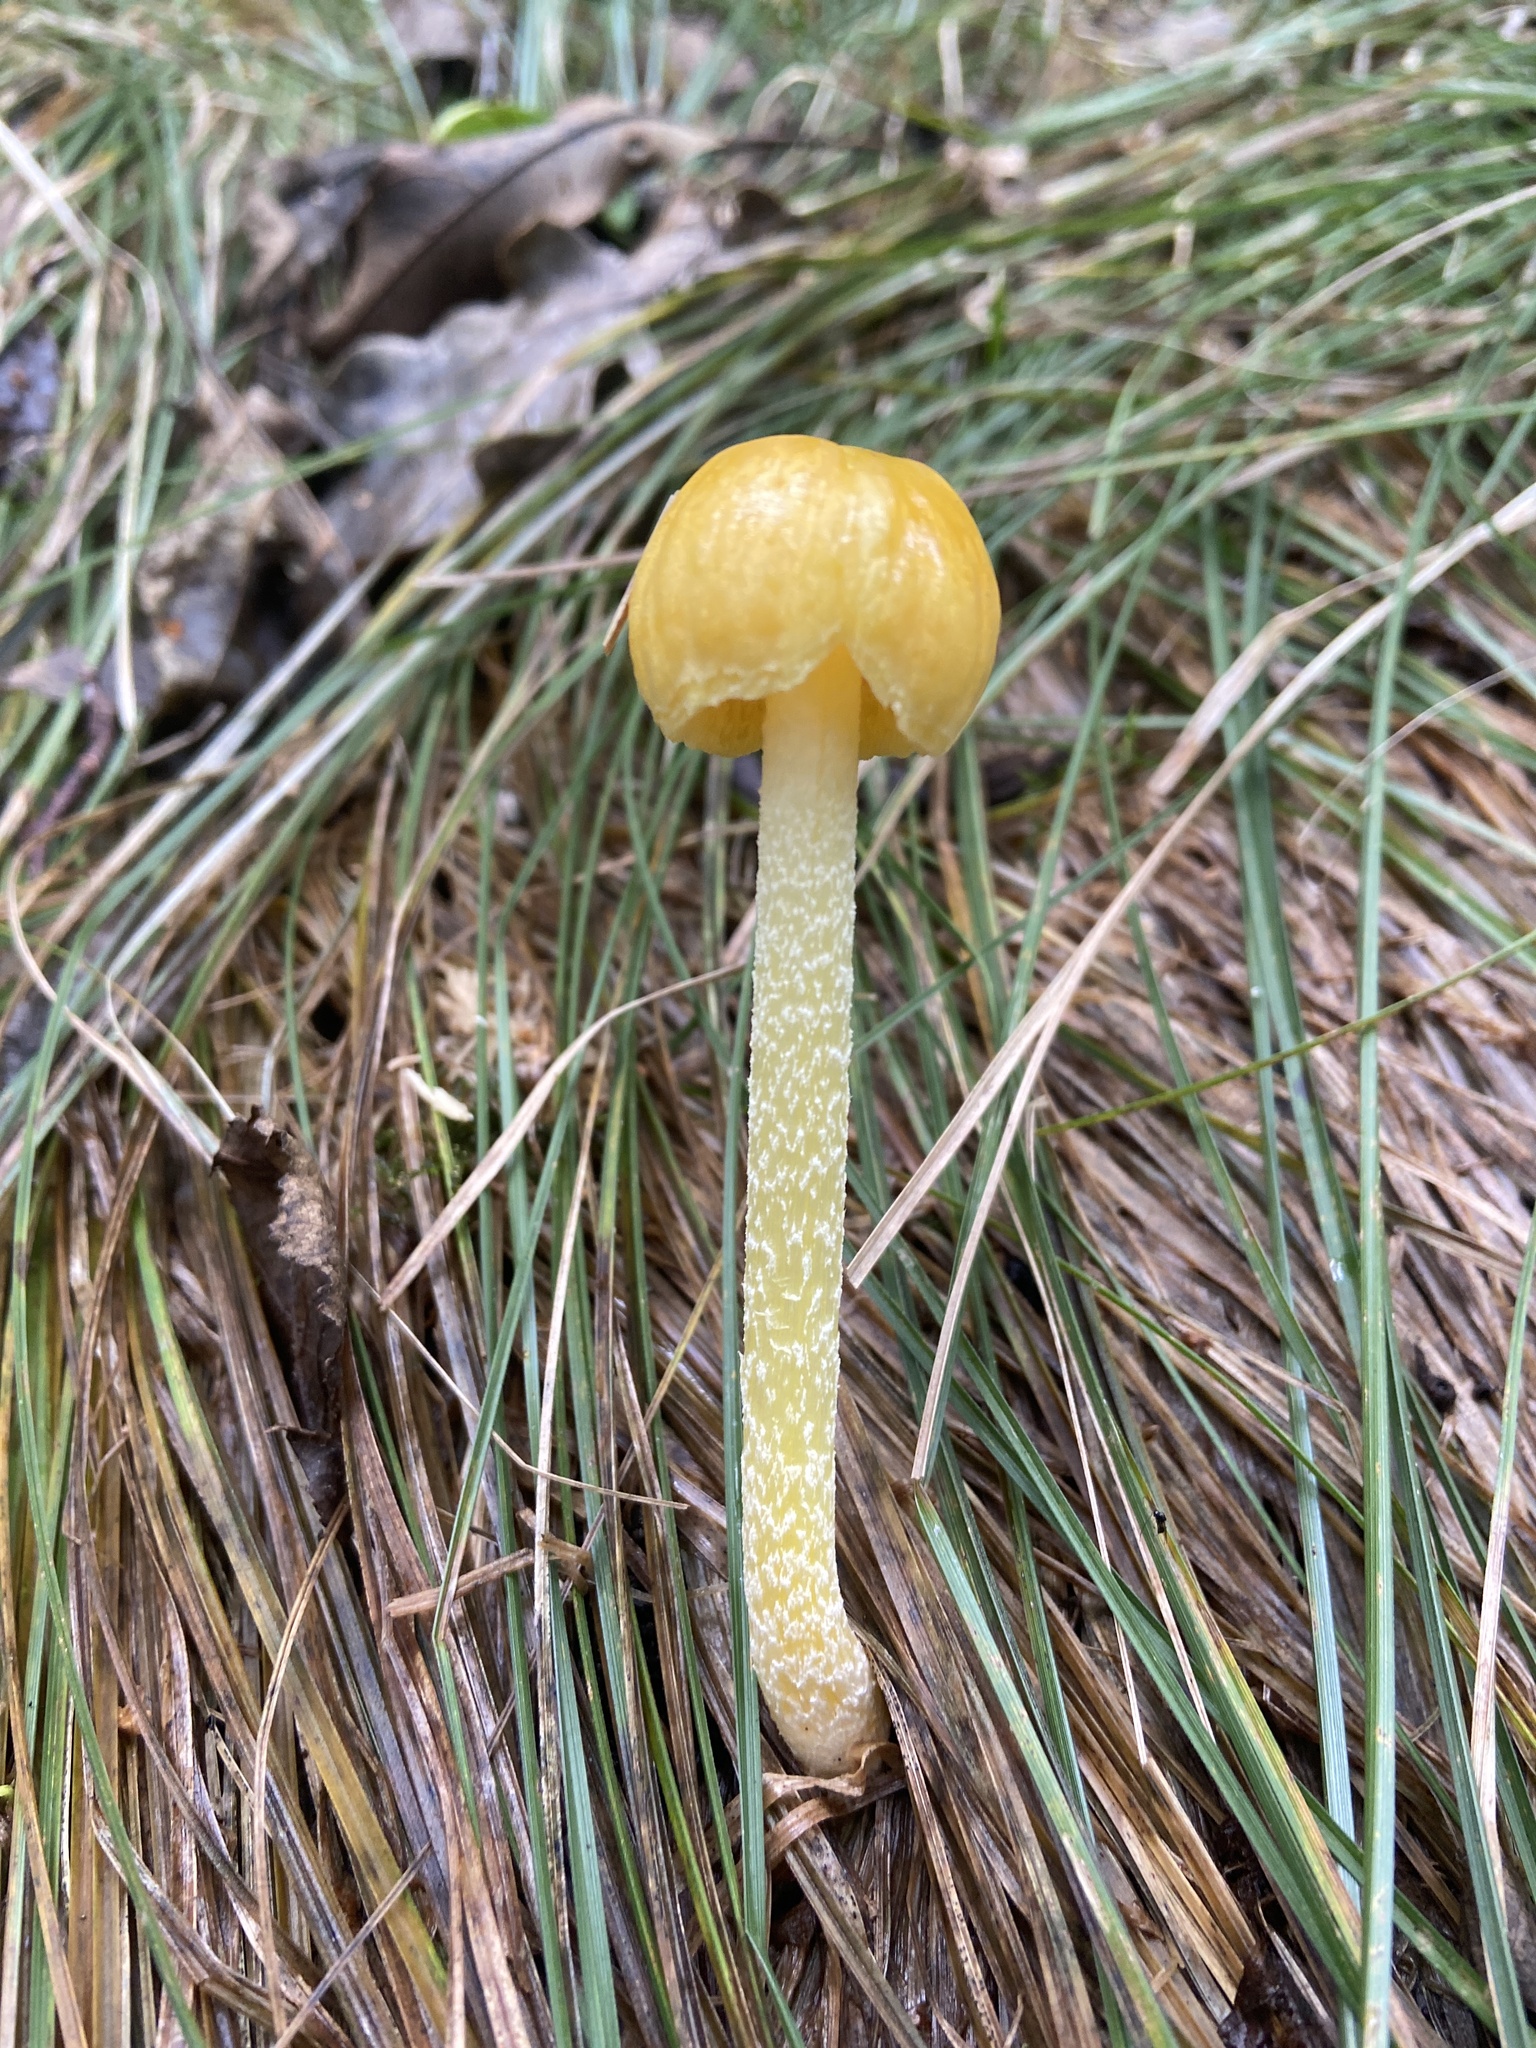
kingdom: Fungi
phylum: Basidiomycota
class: Agaricomycetes
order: Agaricales
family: Bolbitiaceae
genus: Bolbitius
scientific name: Bolbitius titubans
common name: Yellow fieldcap
